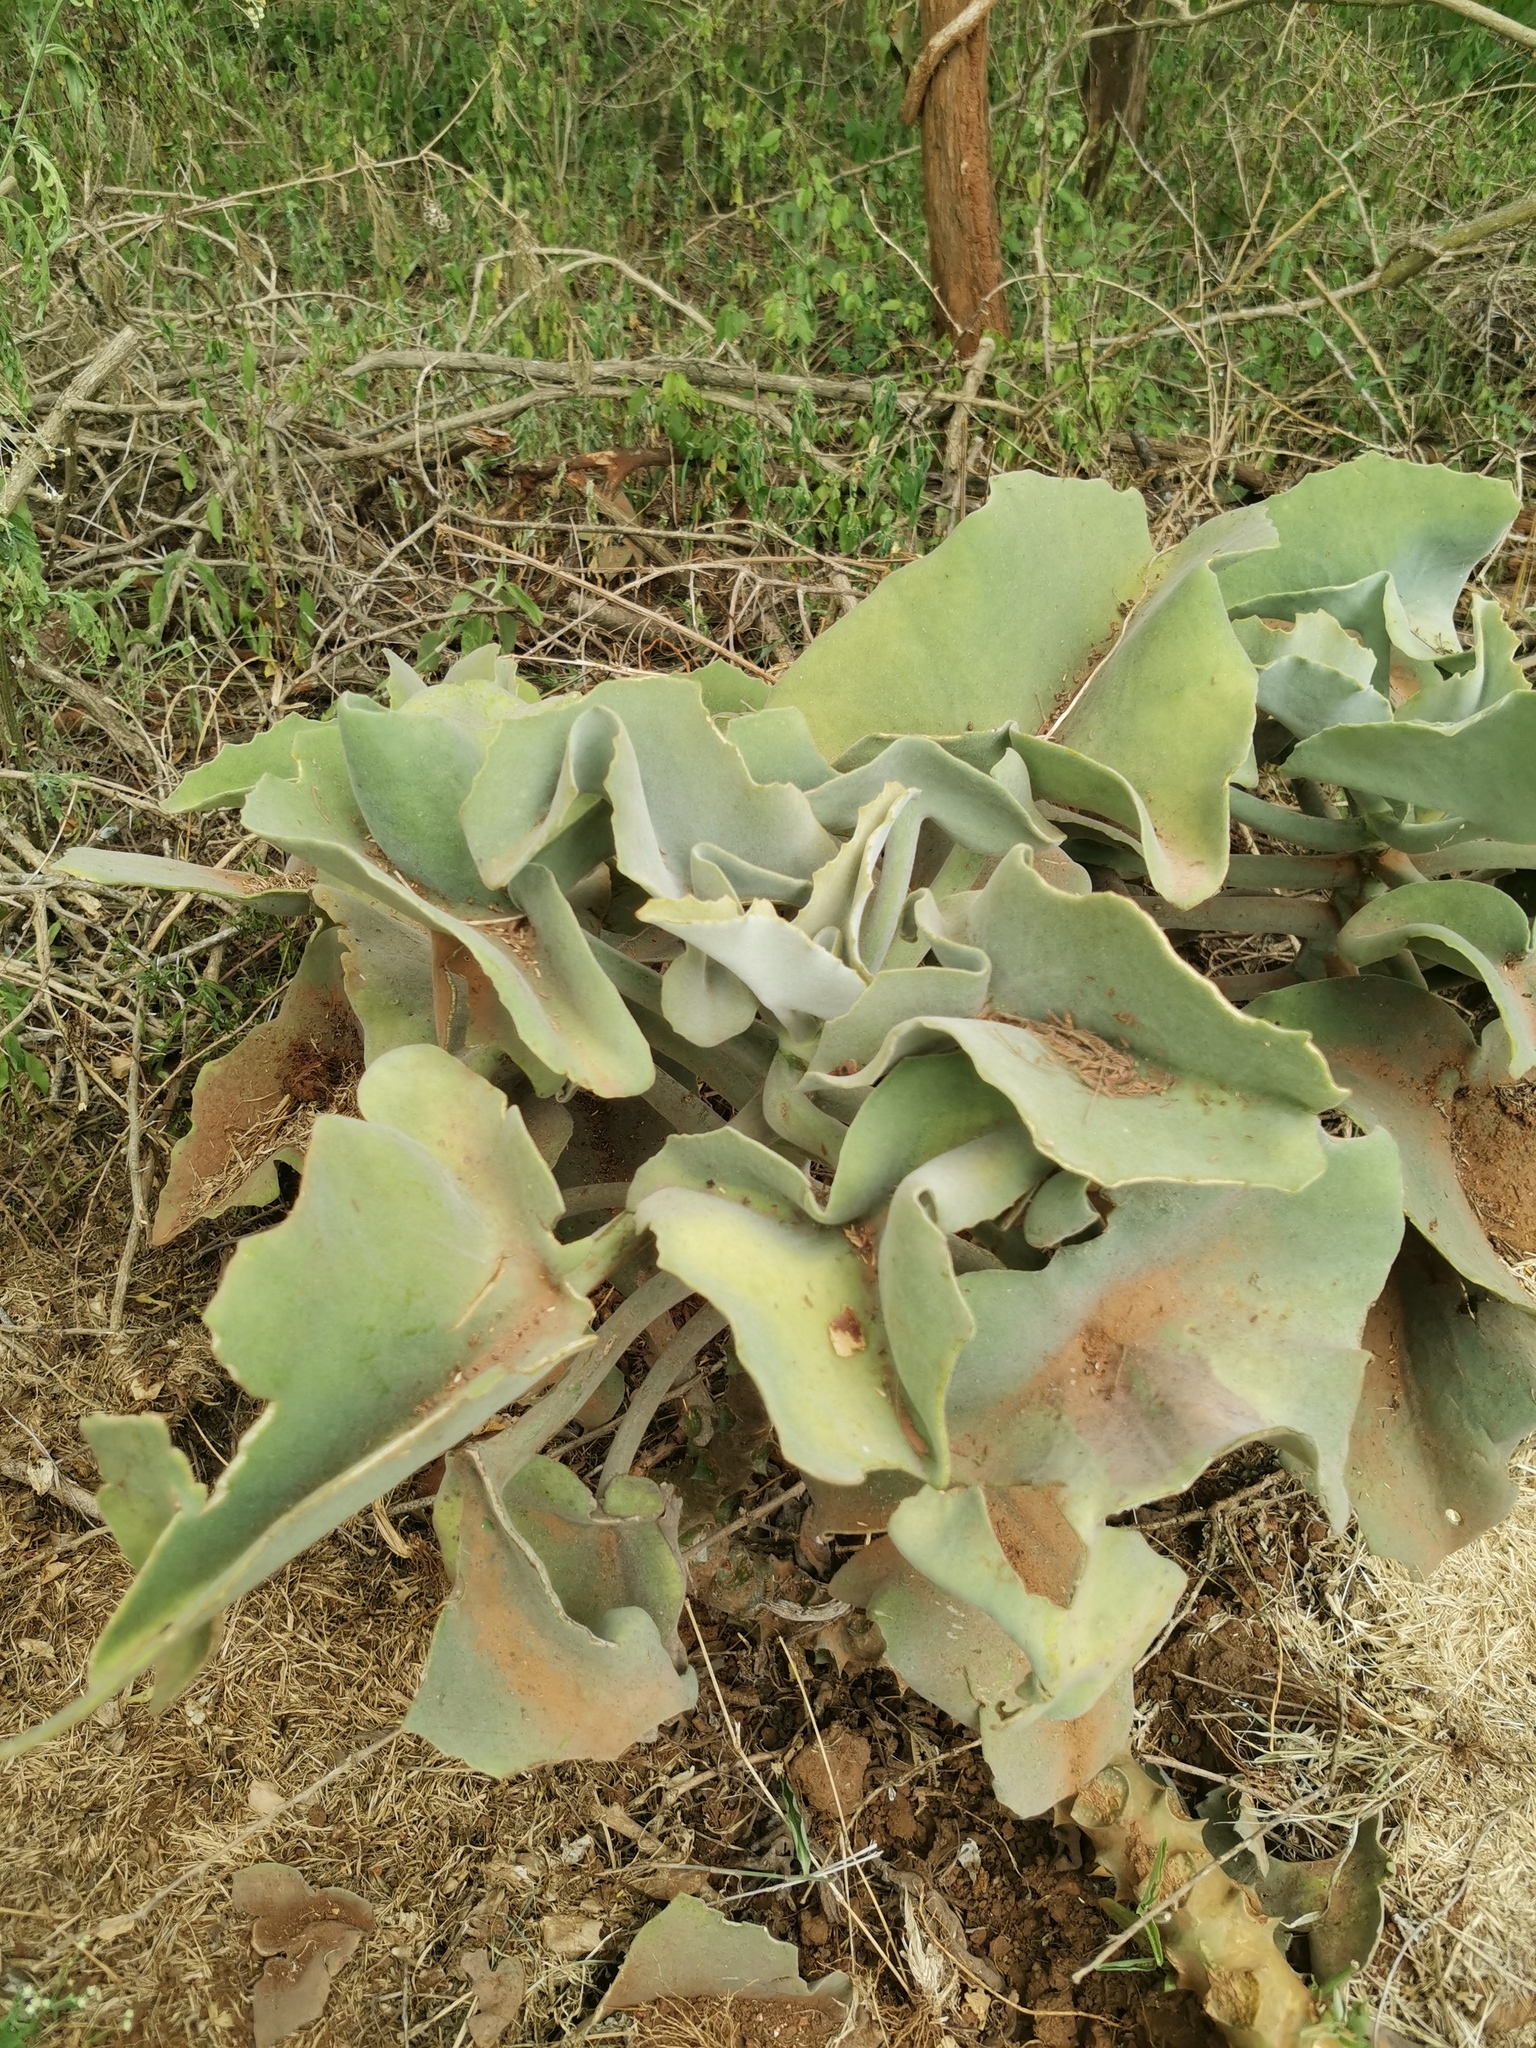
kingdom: Plantae
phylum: Tracheophyta
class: Magnoliopsida
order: Saxifragales
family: Crassulaceae
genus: Kalanchoe
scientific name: Kalanchoe beharensis
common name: Velvet leaf
